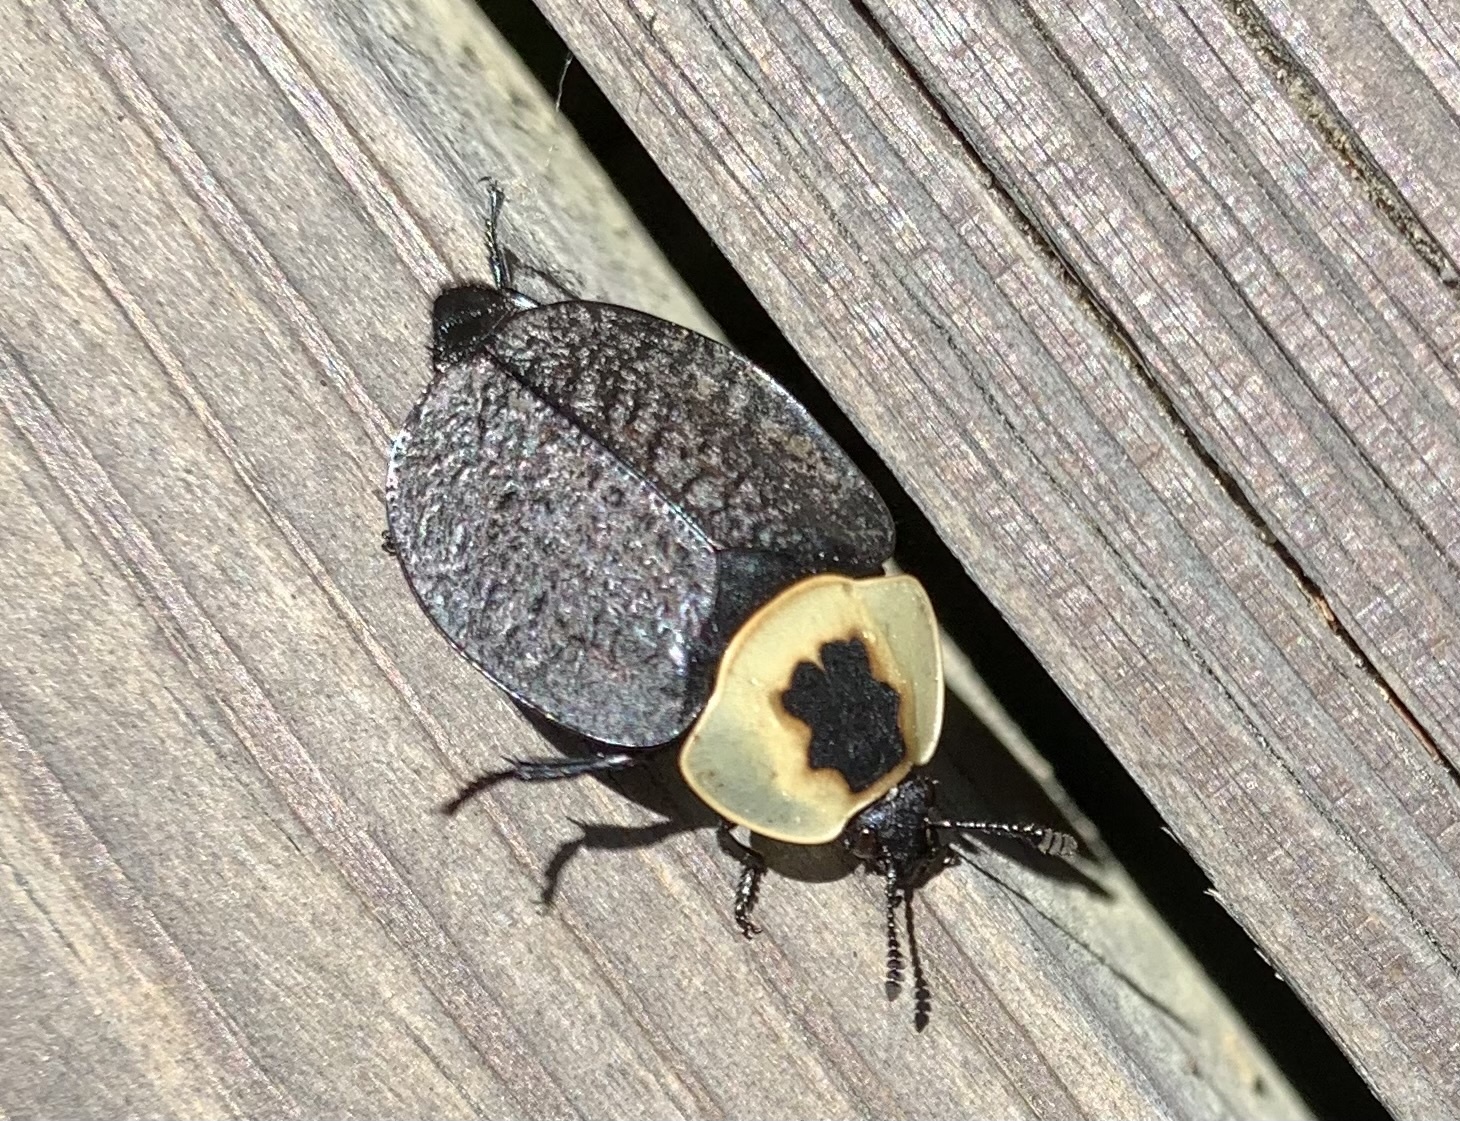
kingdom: Animalia
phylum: Arthropoda
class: Insecta
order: Coleoptera
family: Staphylinidae
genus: Necrophila
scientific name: Necrophila americana
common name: American carrion beetle
